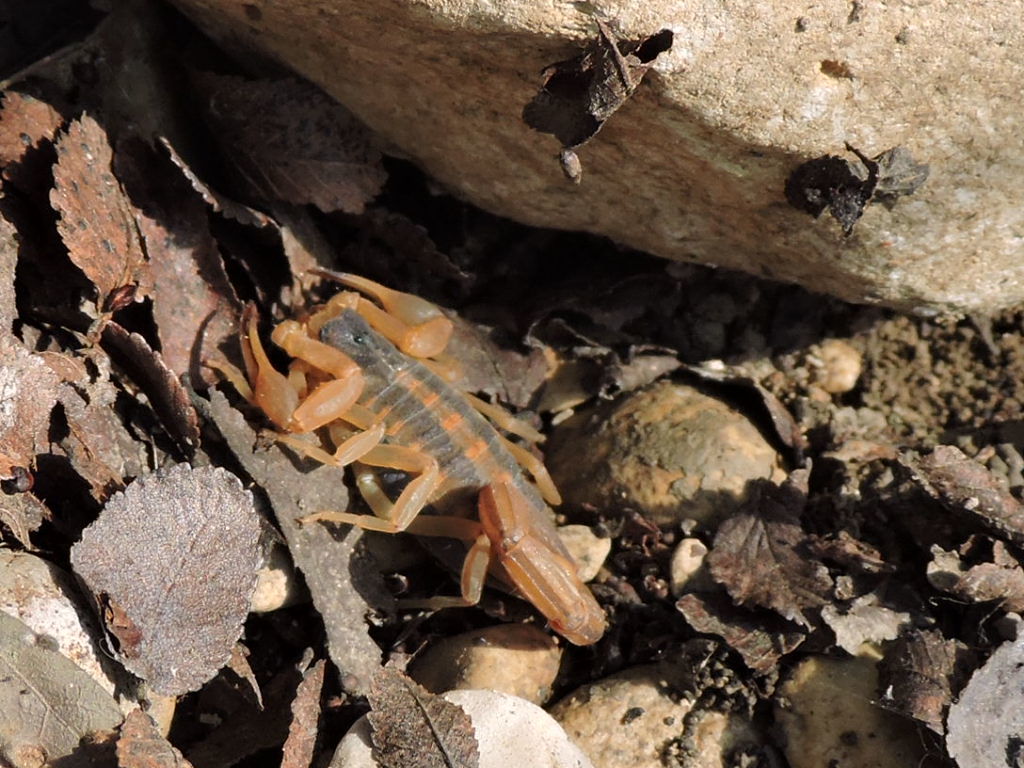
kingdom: Animalia
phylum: Arthropoda
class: Arachnida
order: Scorpiones
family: Buthidae
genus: Centruroides
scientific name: Centruroides vittatus
